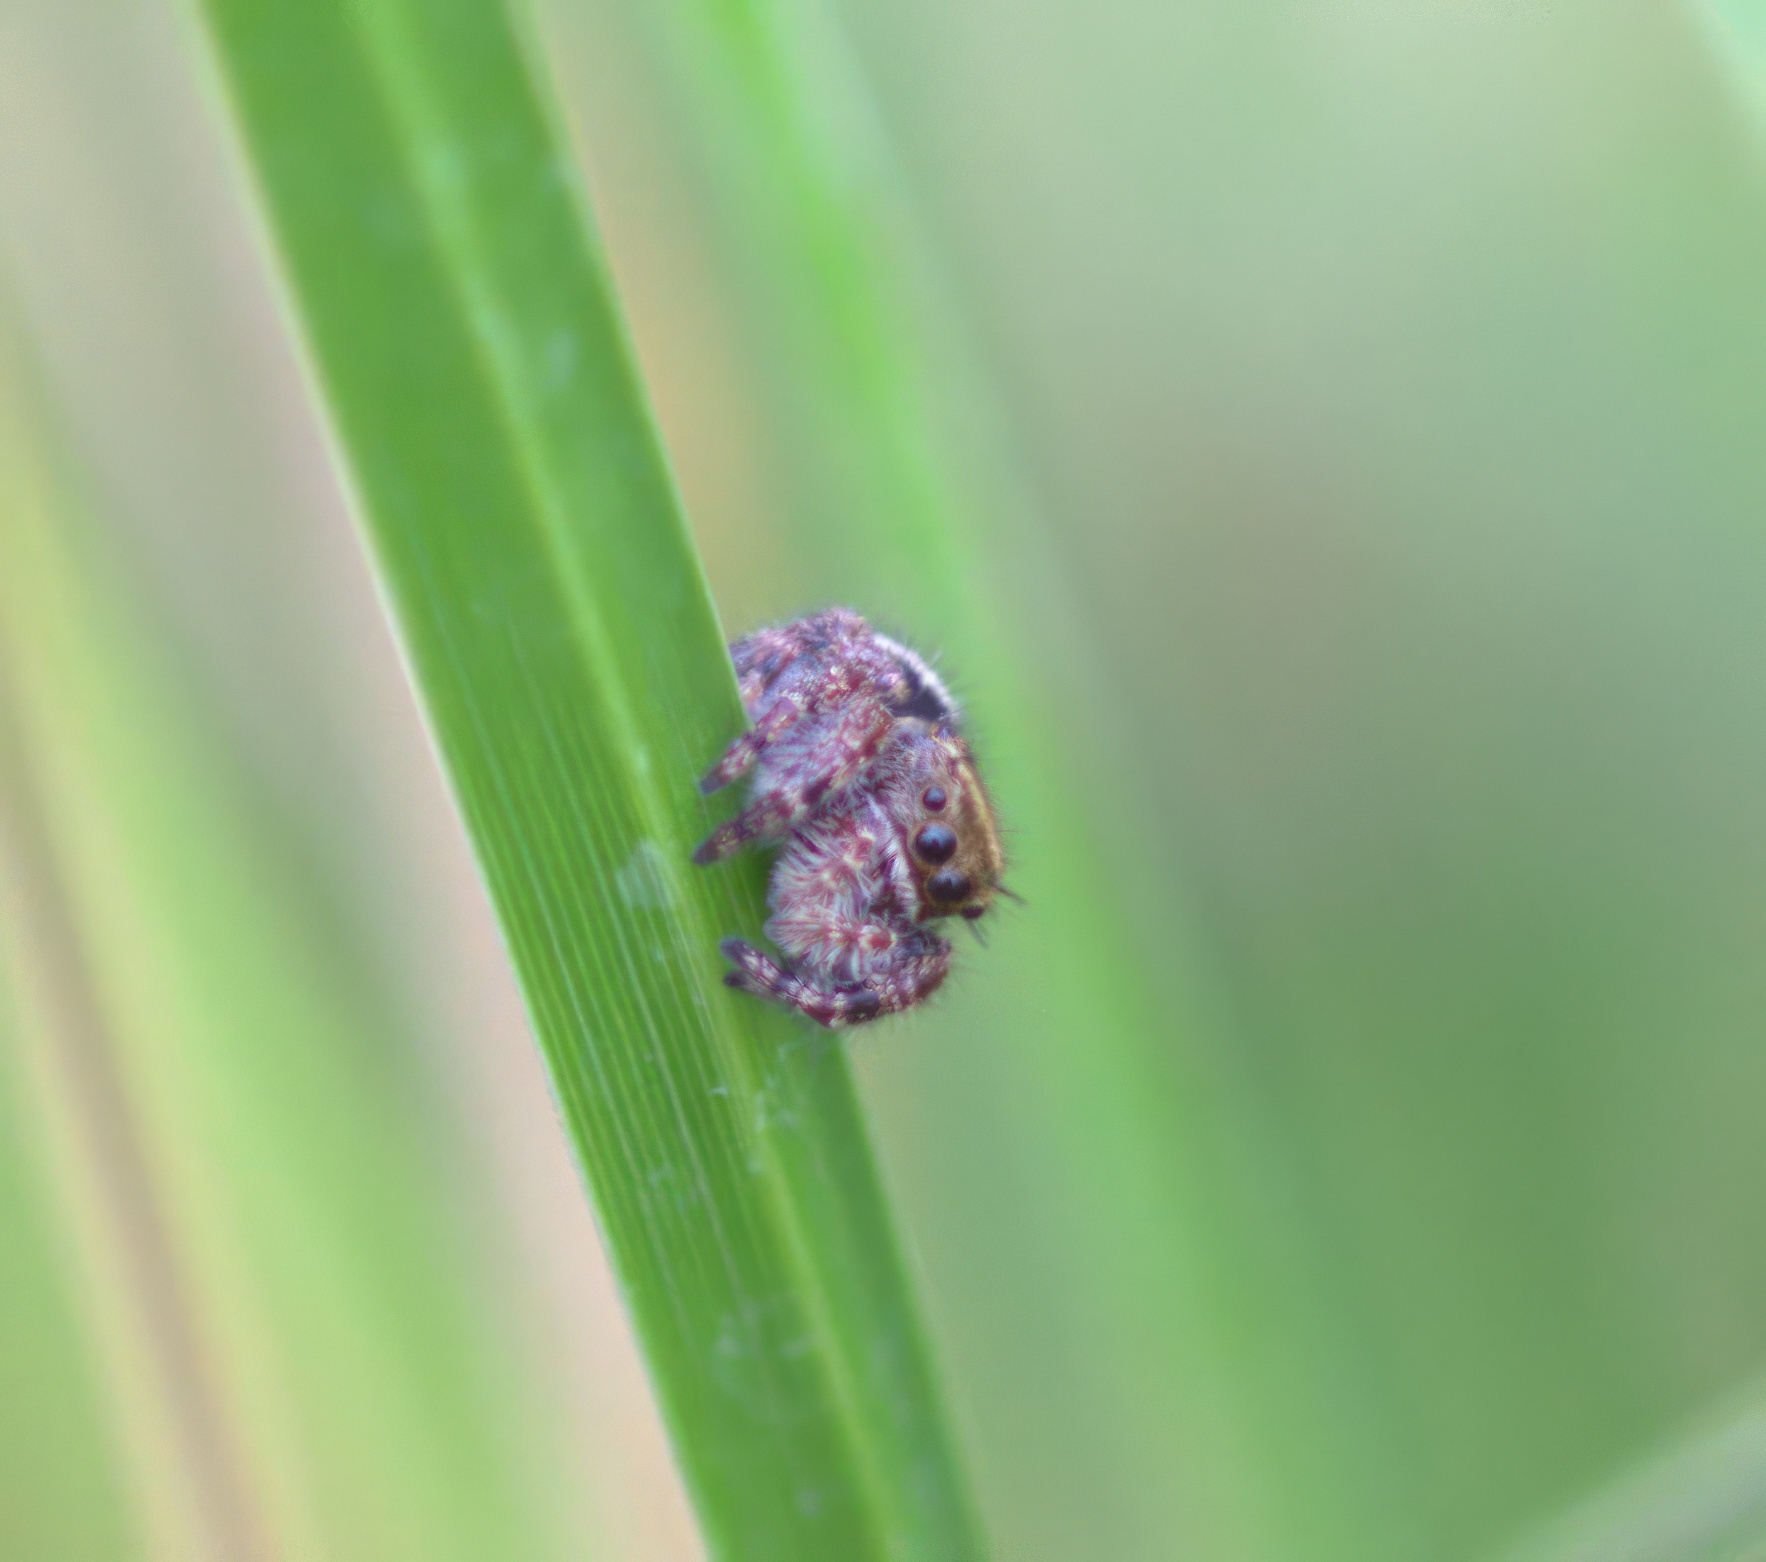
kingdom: Animalia
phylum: Arthropoda
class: Arachnida
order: Araneae
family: Salticidae
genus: Phidippus
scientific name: Phidippus audax
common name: Bold jumper
